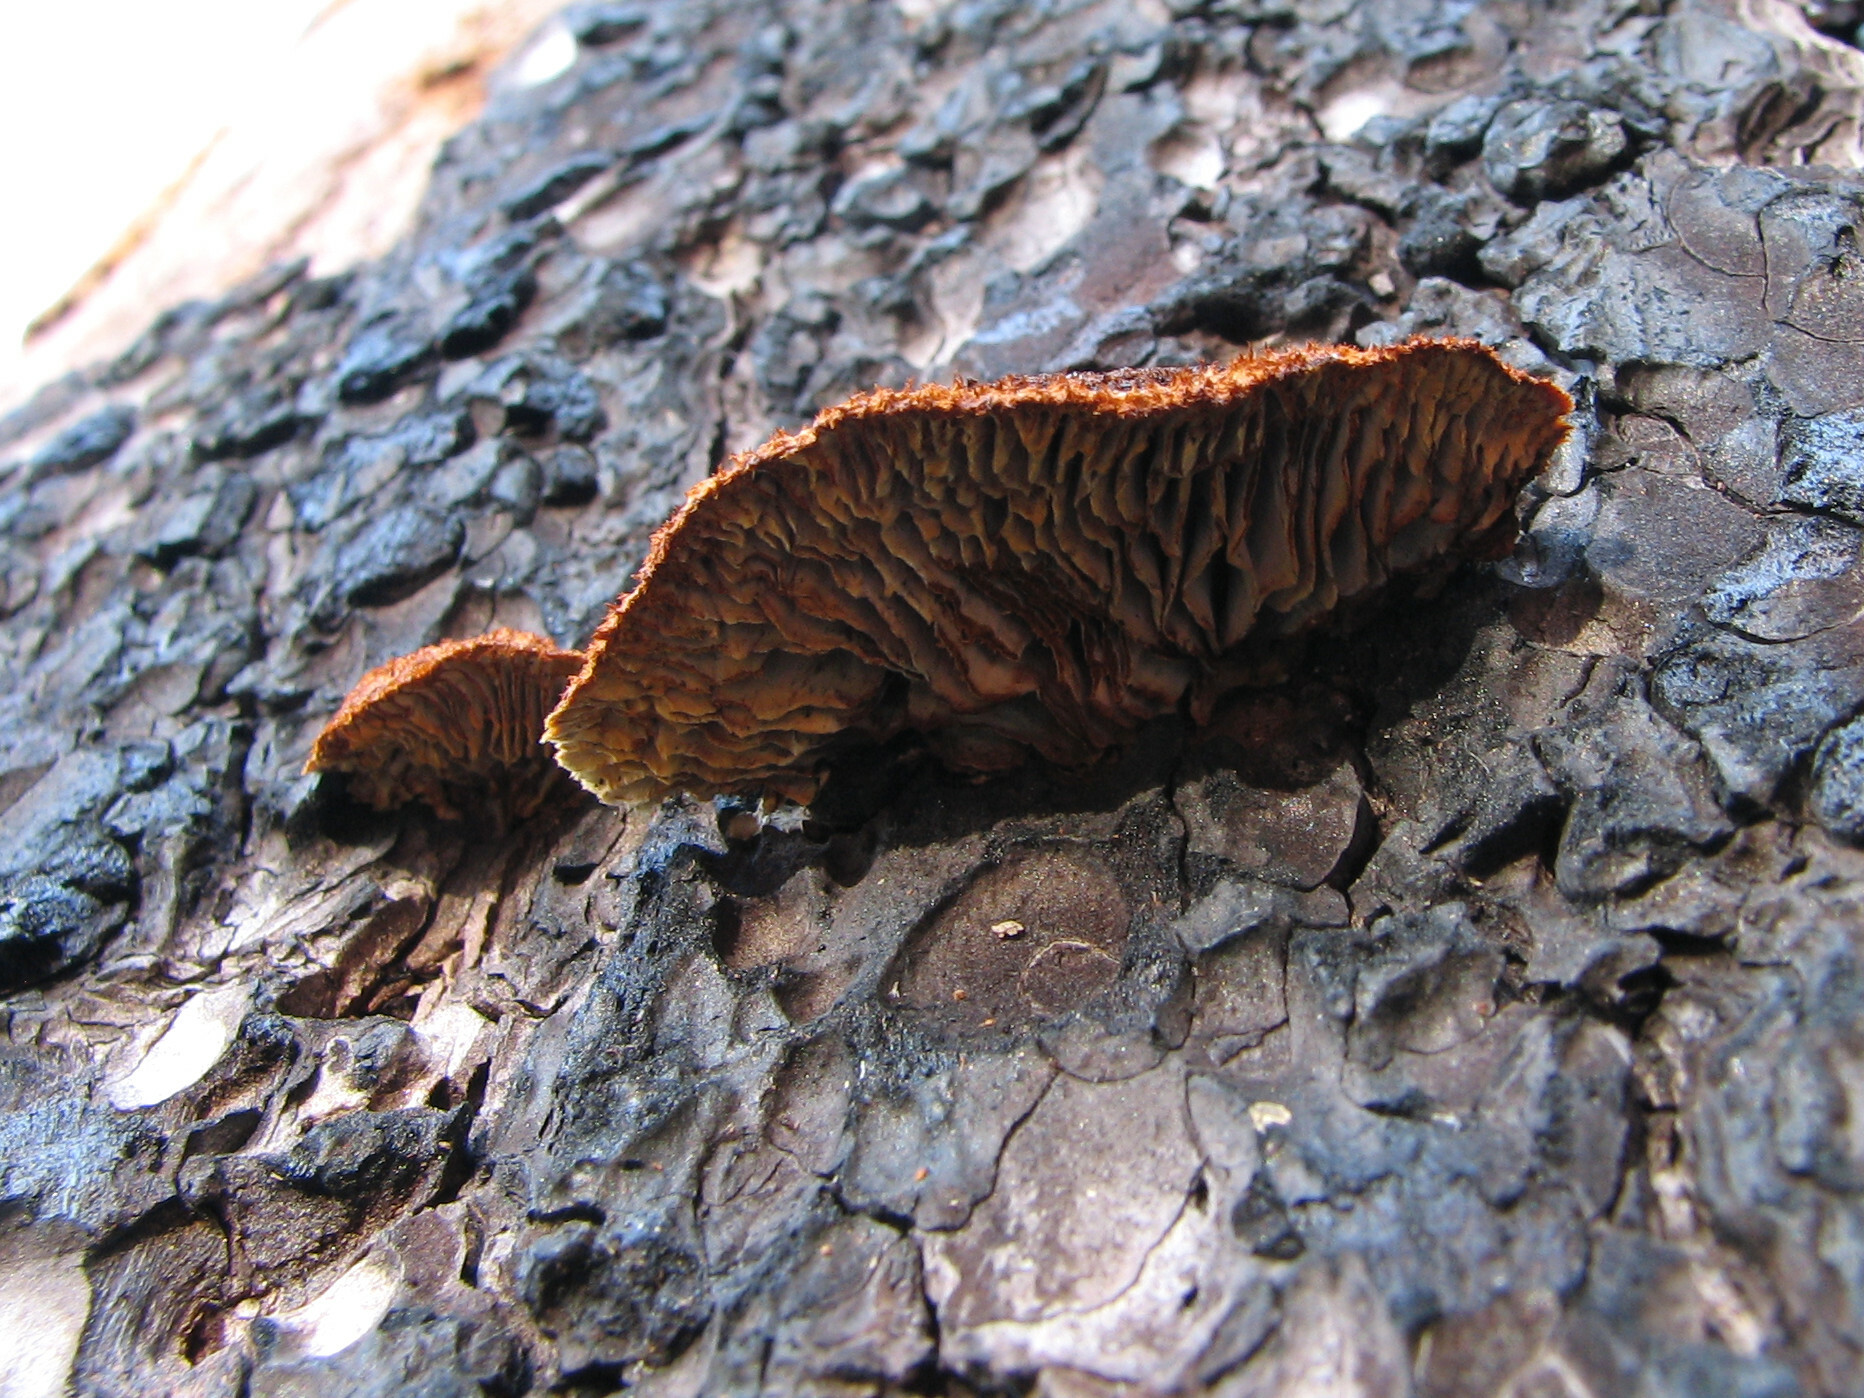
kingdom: Fungi
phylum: Basidiomycota
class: Agaricomycetes
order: Gloeophyllales
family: Gloeophyllaceae
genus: Gloeophyllum
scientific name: Gloeophyllum sepiarium
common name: Conifer mazegill
